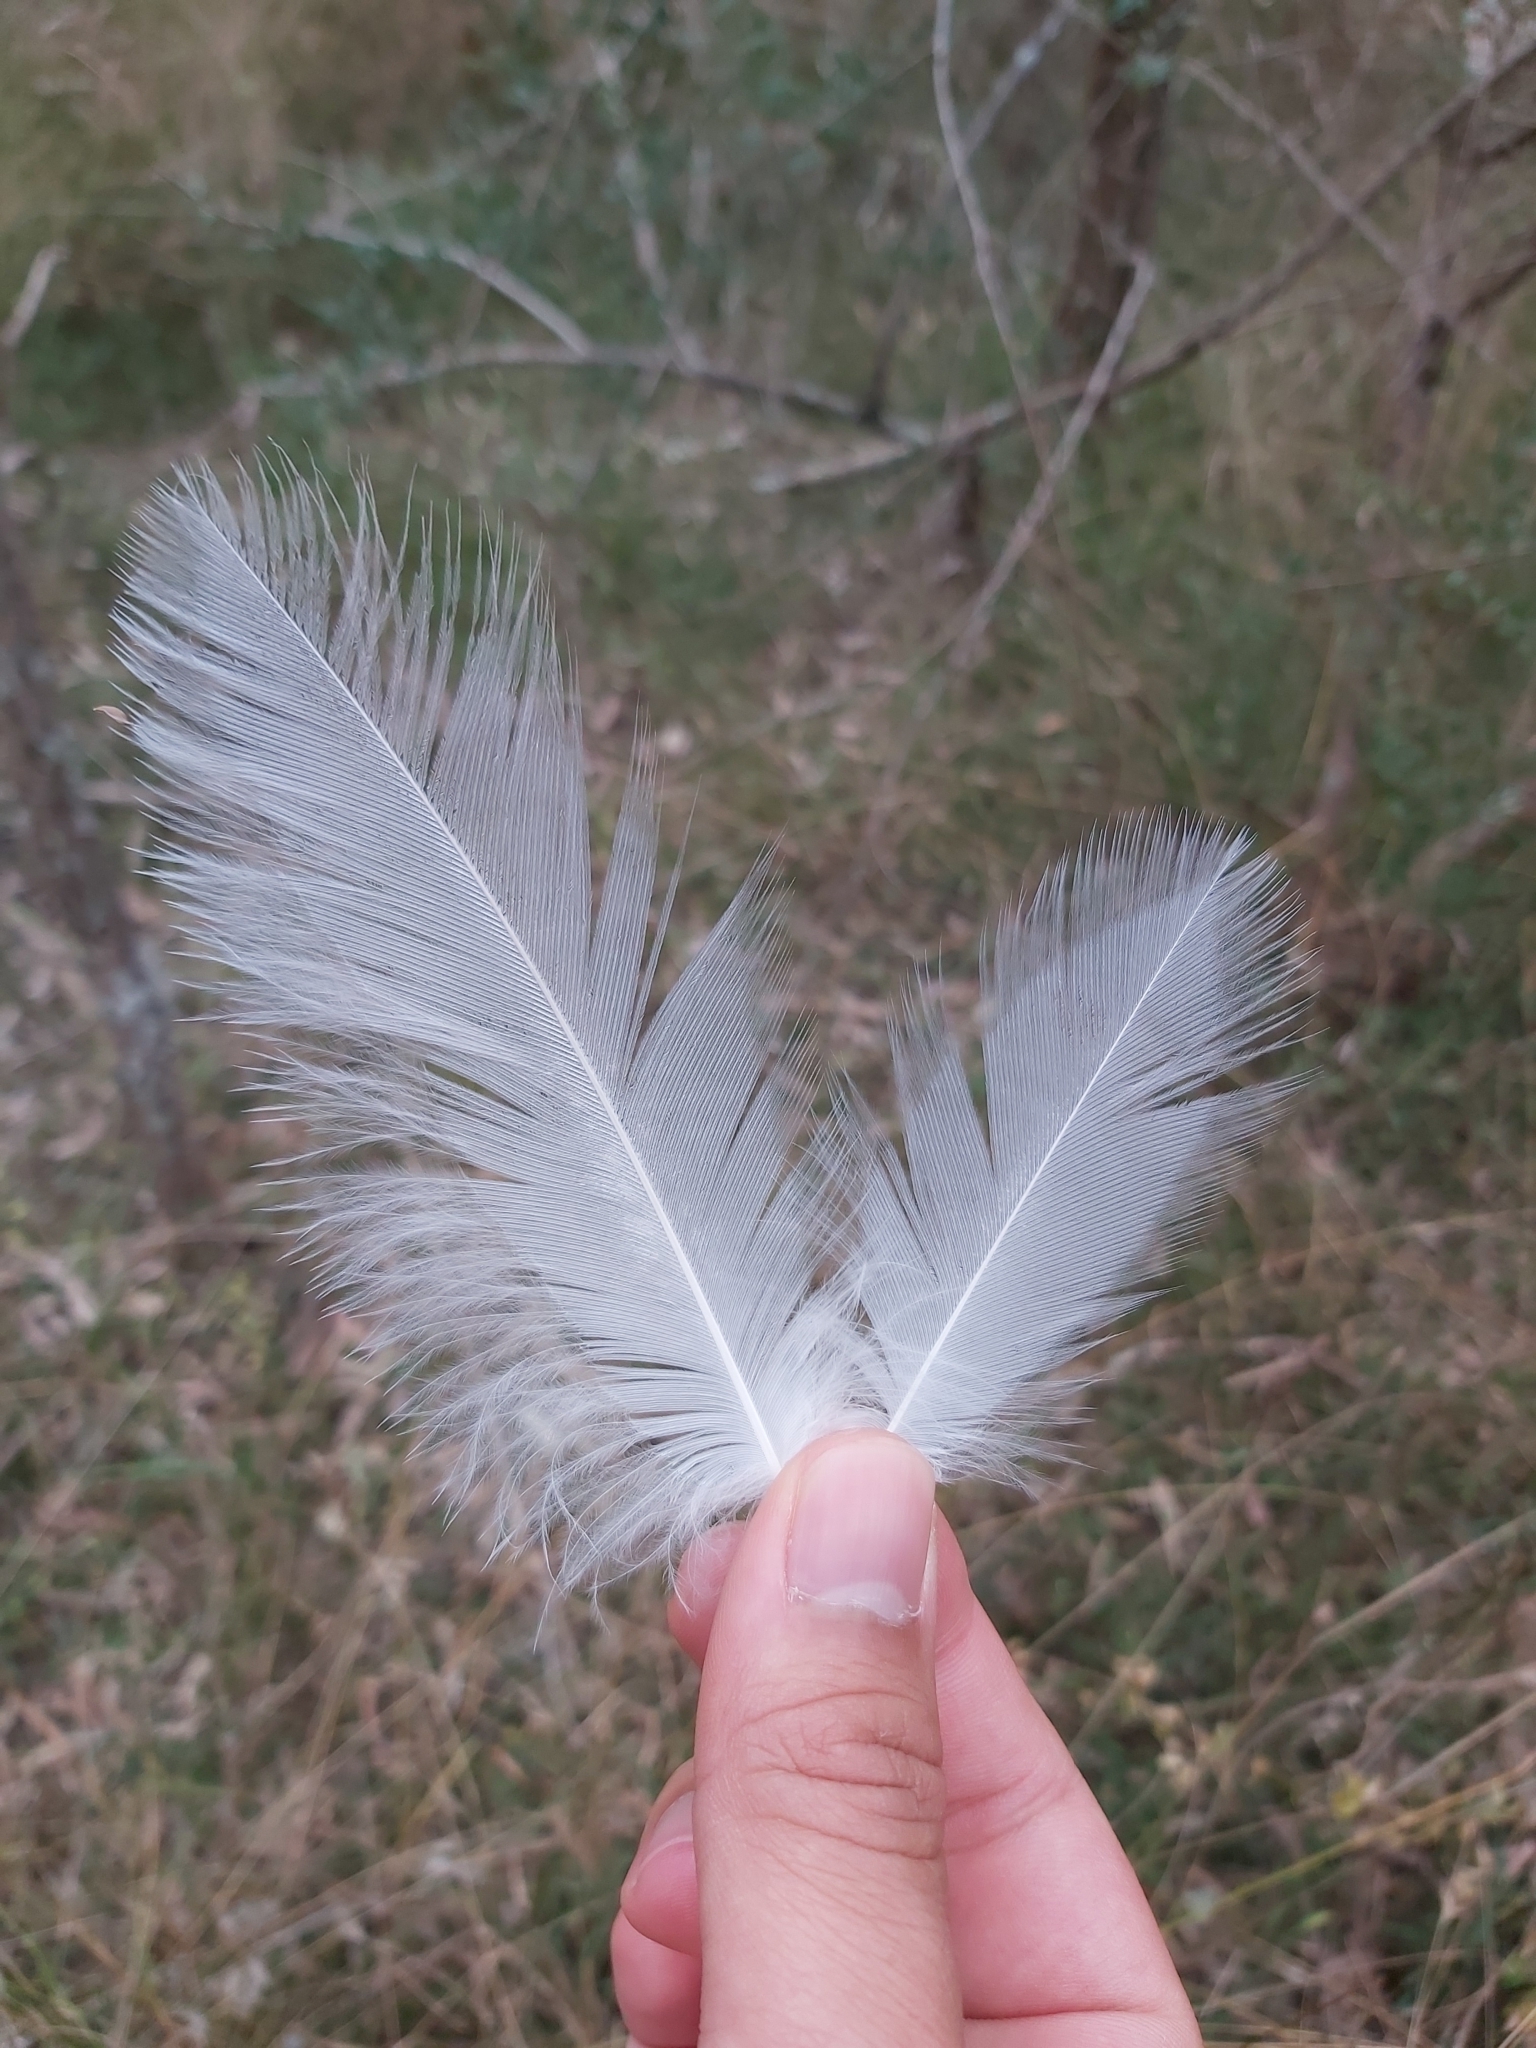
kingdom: Animalia
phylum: Chordata
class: Aves
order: Pelecaniformes
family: Ardeidae
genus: Egretta
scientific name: Egretta novaehollandiae
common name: White-faced heron
